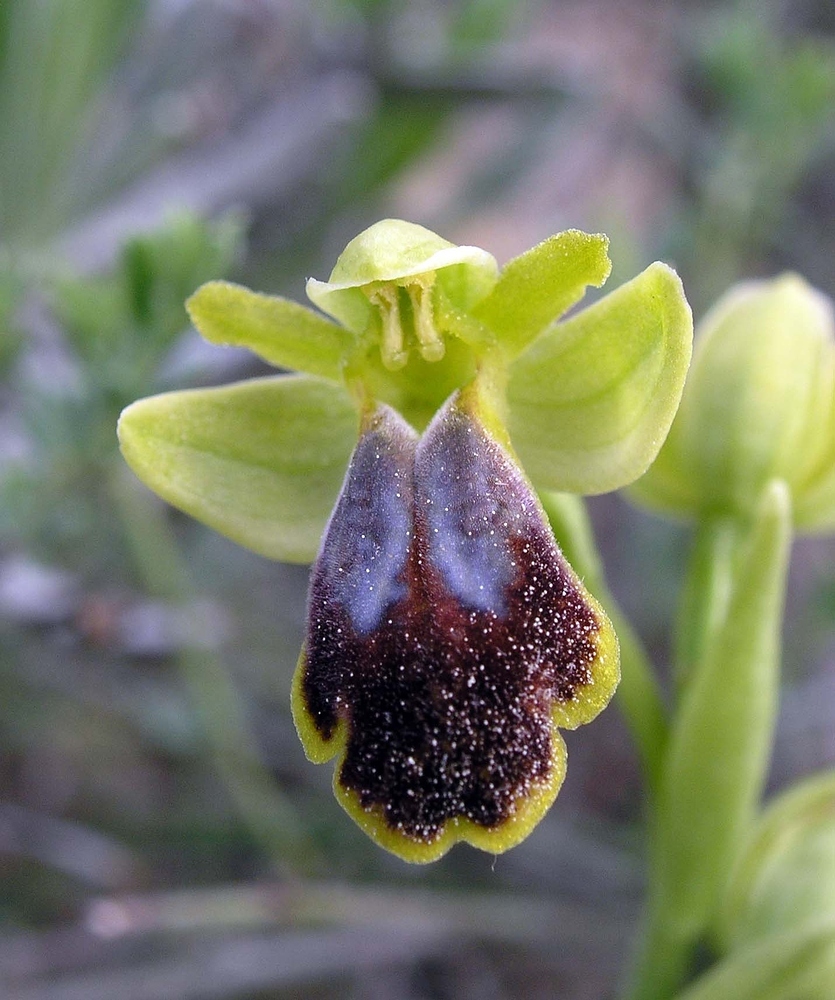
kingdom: Plantae
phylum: Tracheophyta
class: Liliopsida
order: Asparagales
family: Orchidaceae
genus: Ophrys
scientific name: Ophrys fusca
